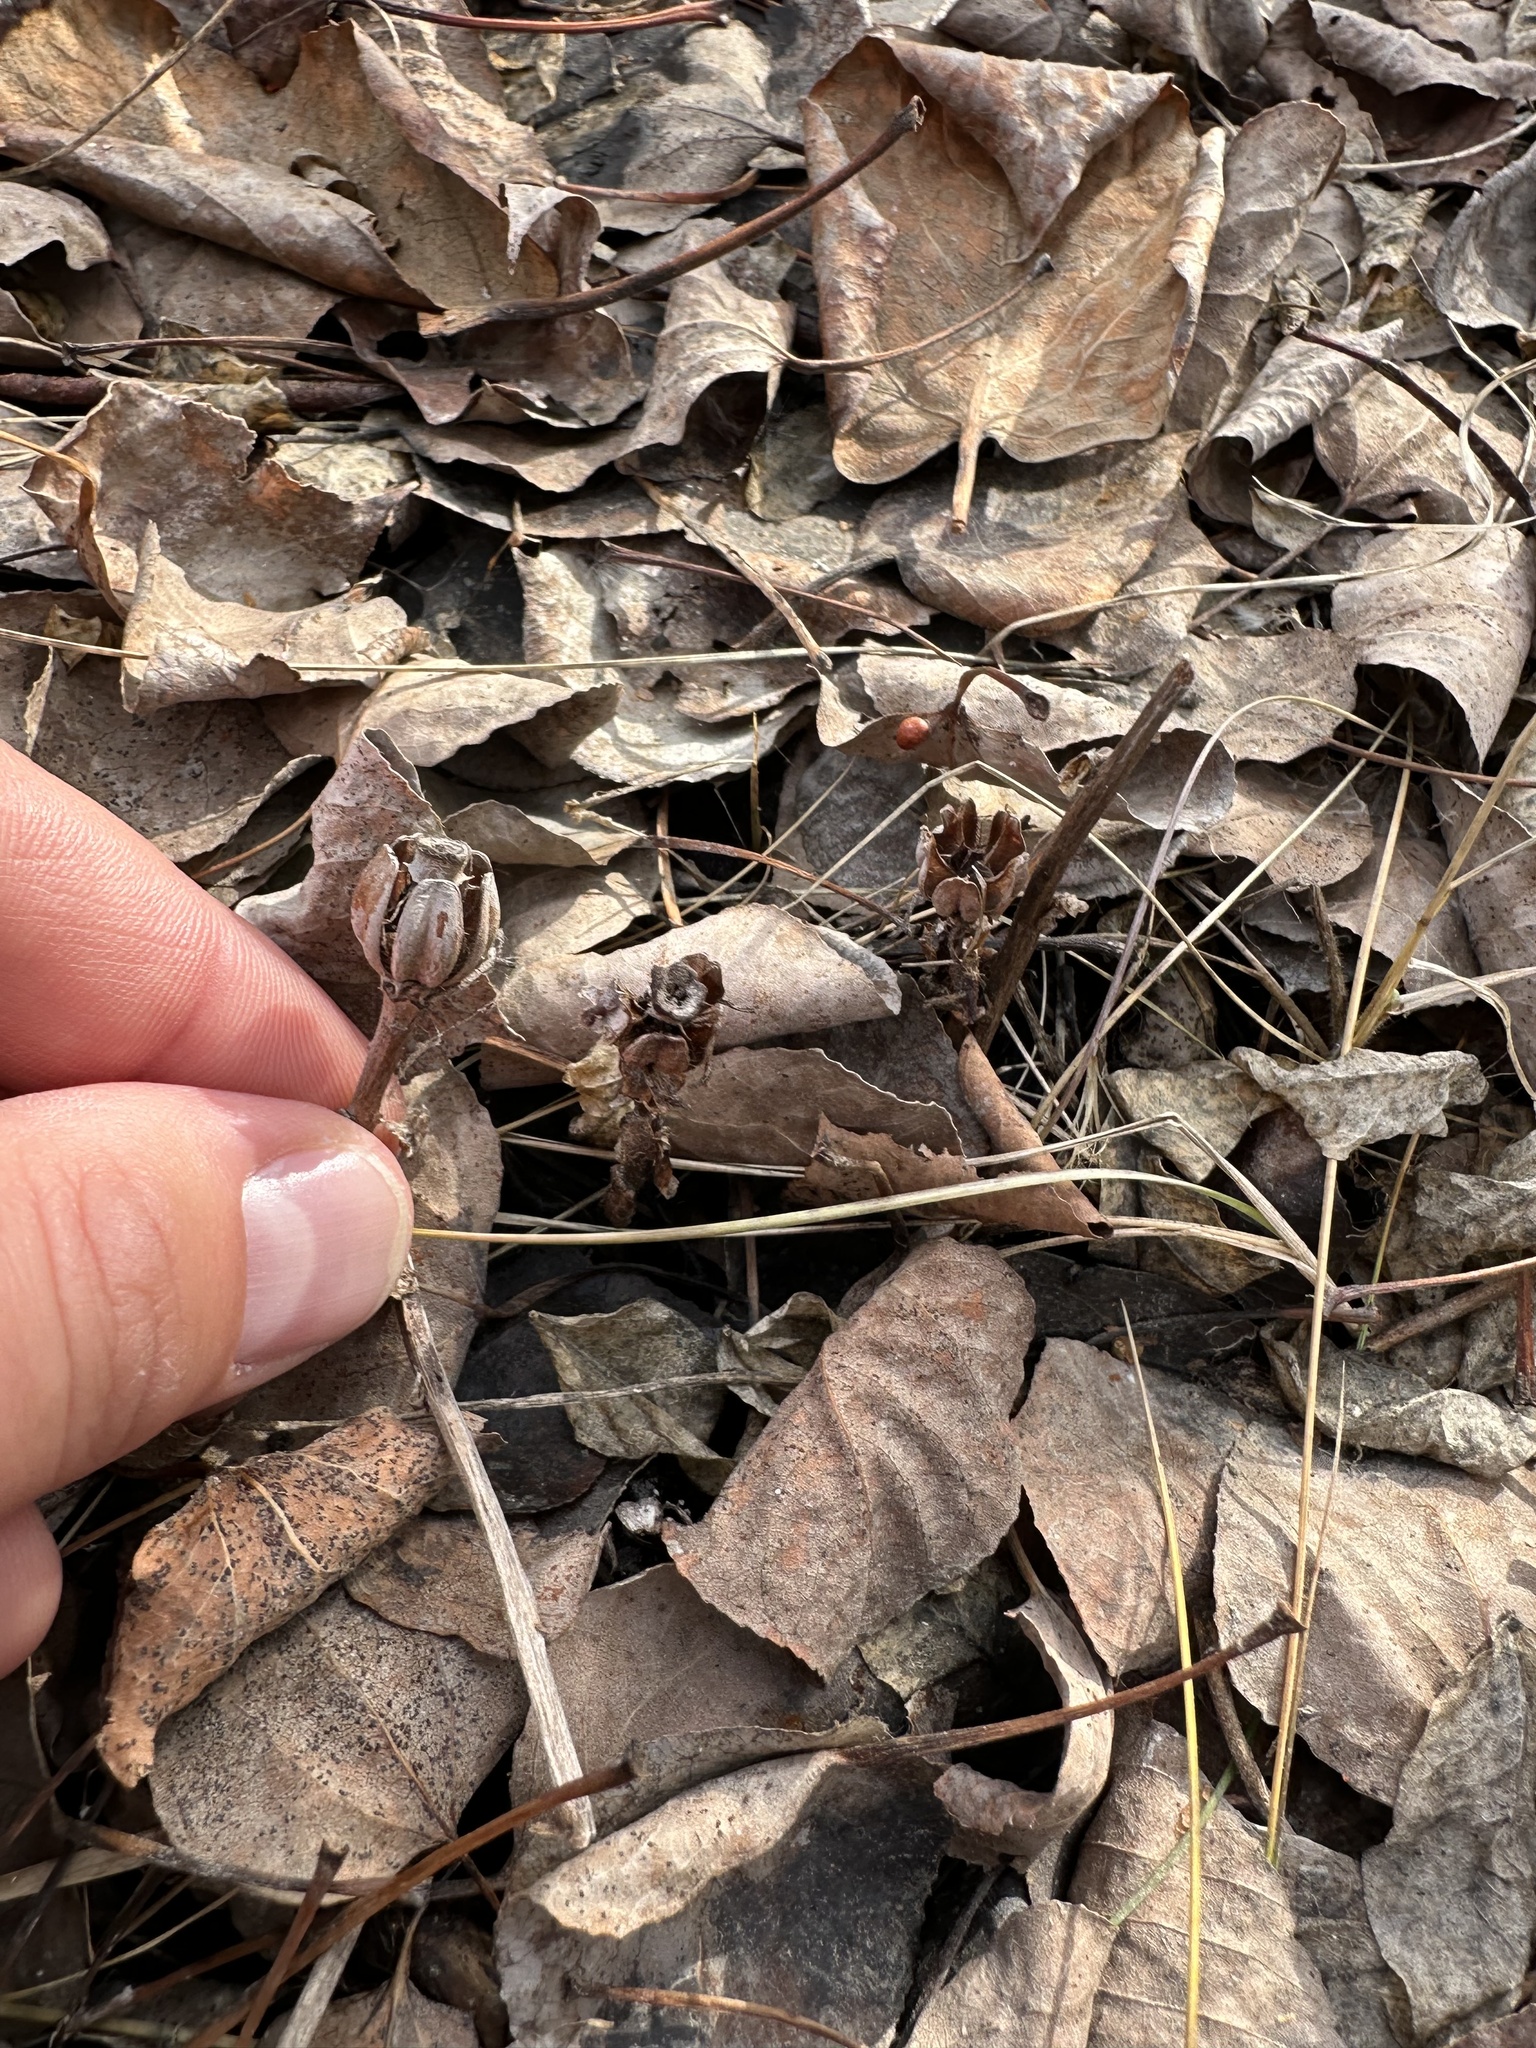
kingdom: Plantae
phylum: Tracheophyta
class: Magnoliopsida
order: Ericales
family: Ericaceae
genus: Monotropa
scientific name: Monotropa uniflora
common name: Convulsion root
